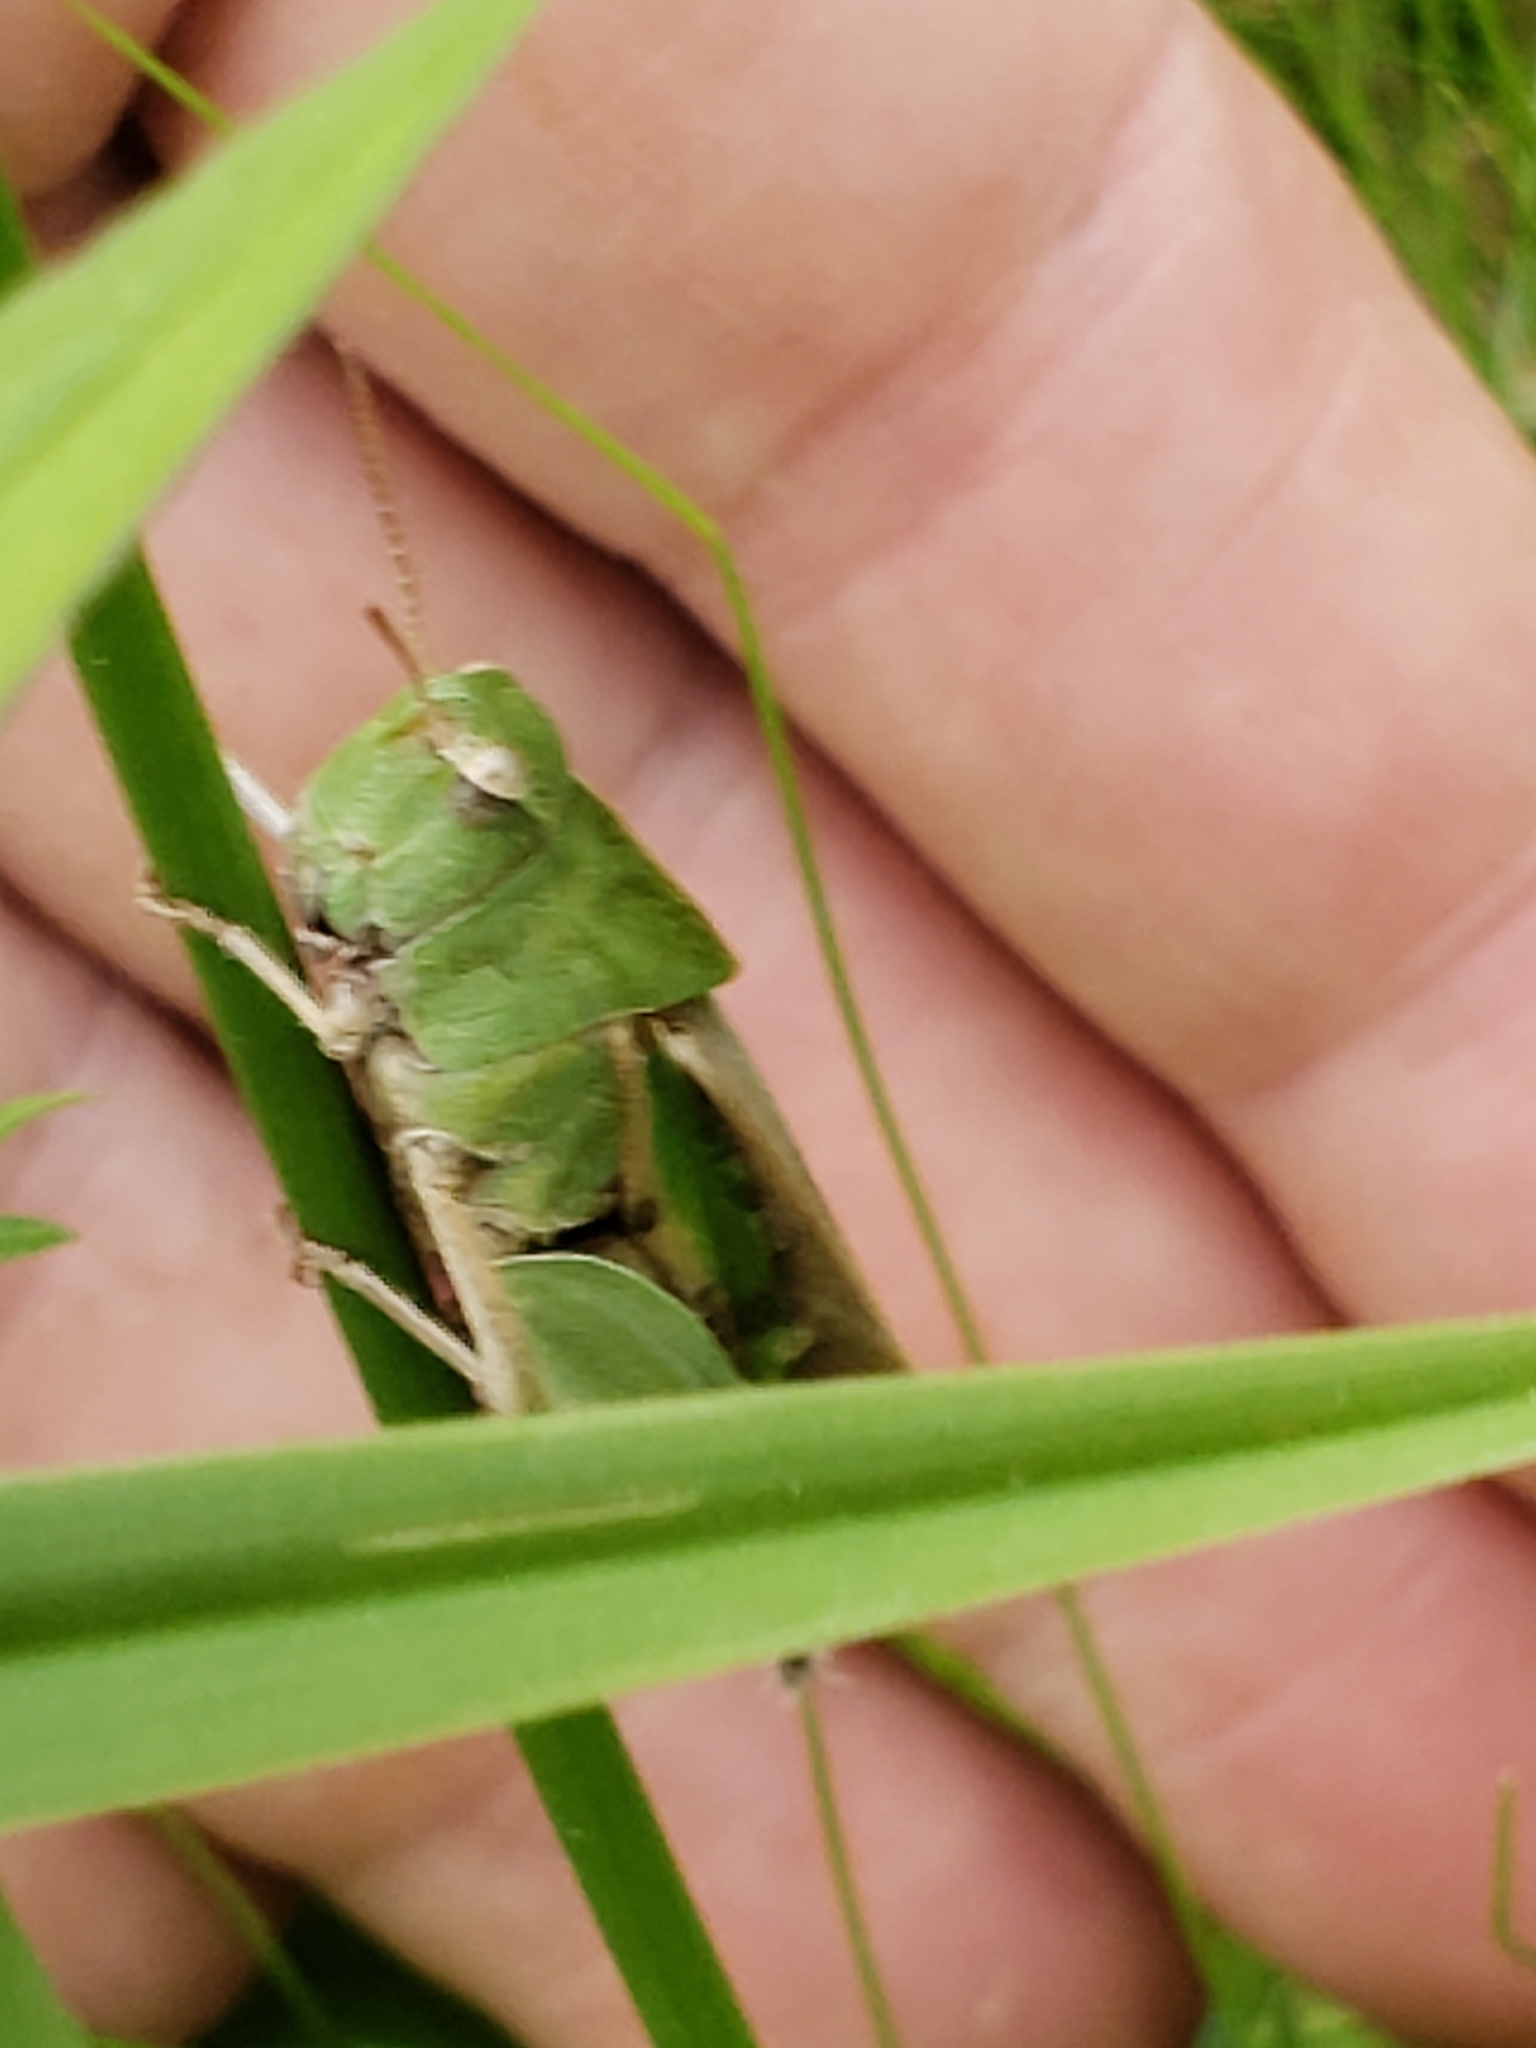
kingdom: Animalia
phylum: Arthropoda
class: Insecta
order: Orthoptera
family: Acrididae
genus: Chortophaga
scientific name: Chortophaga viridifasciata
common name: Green-striped grasshopper
